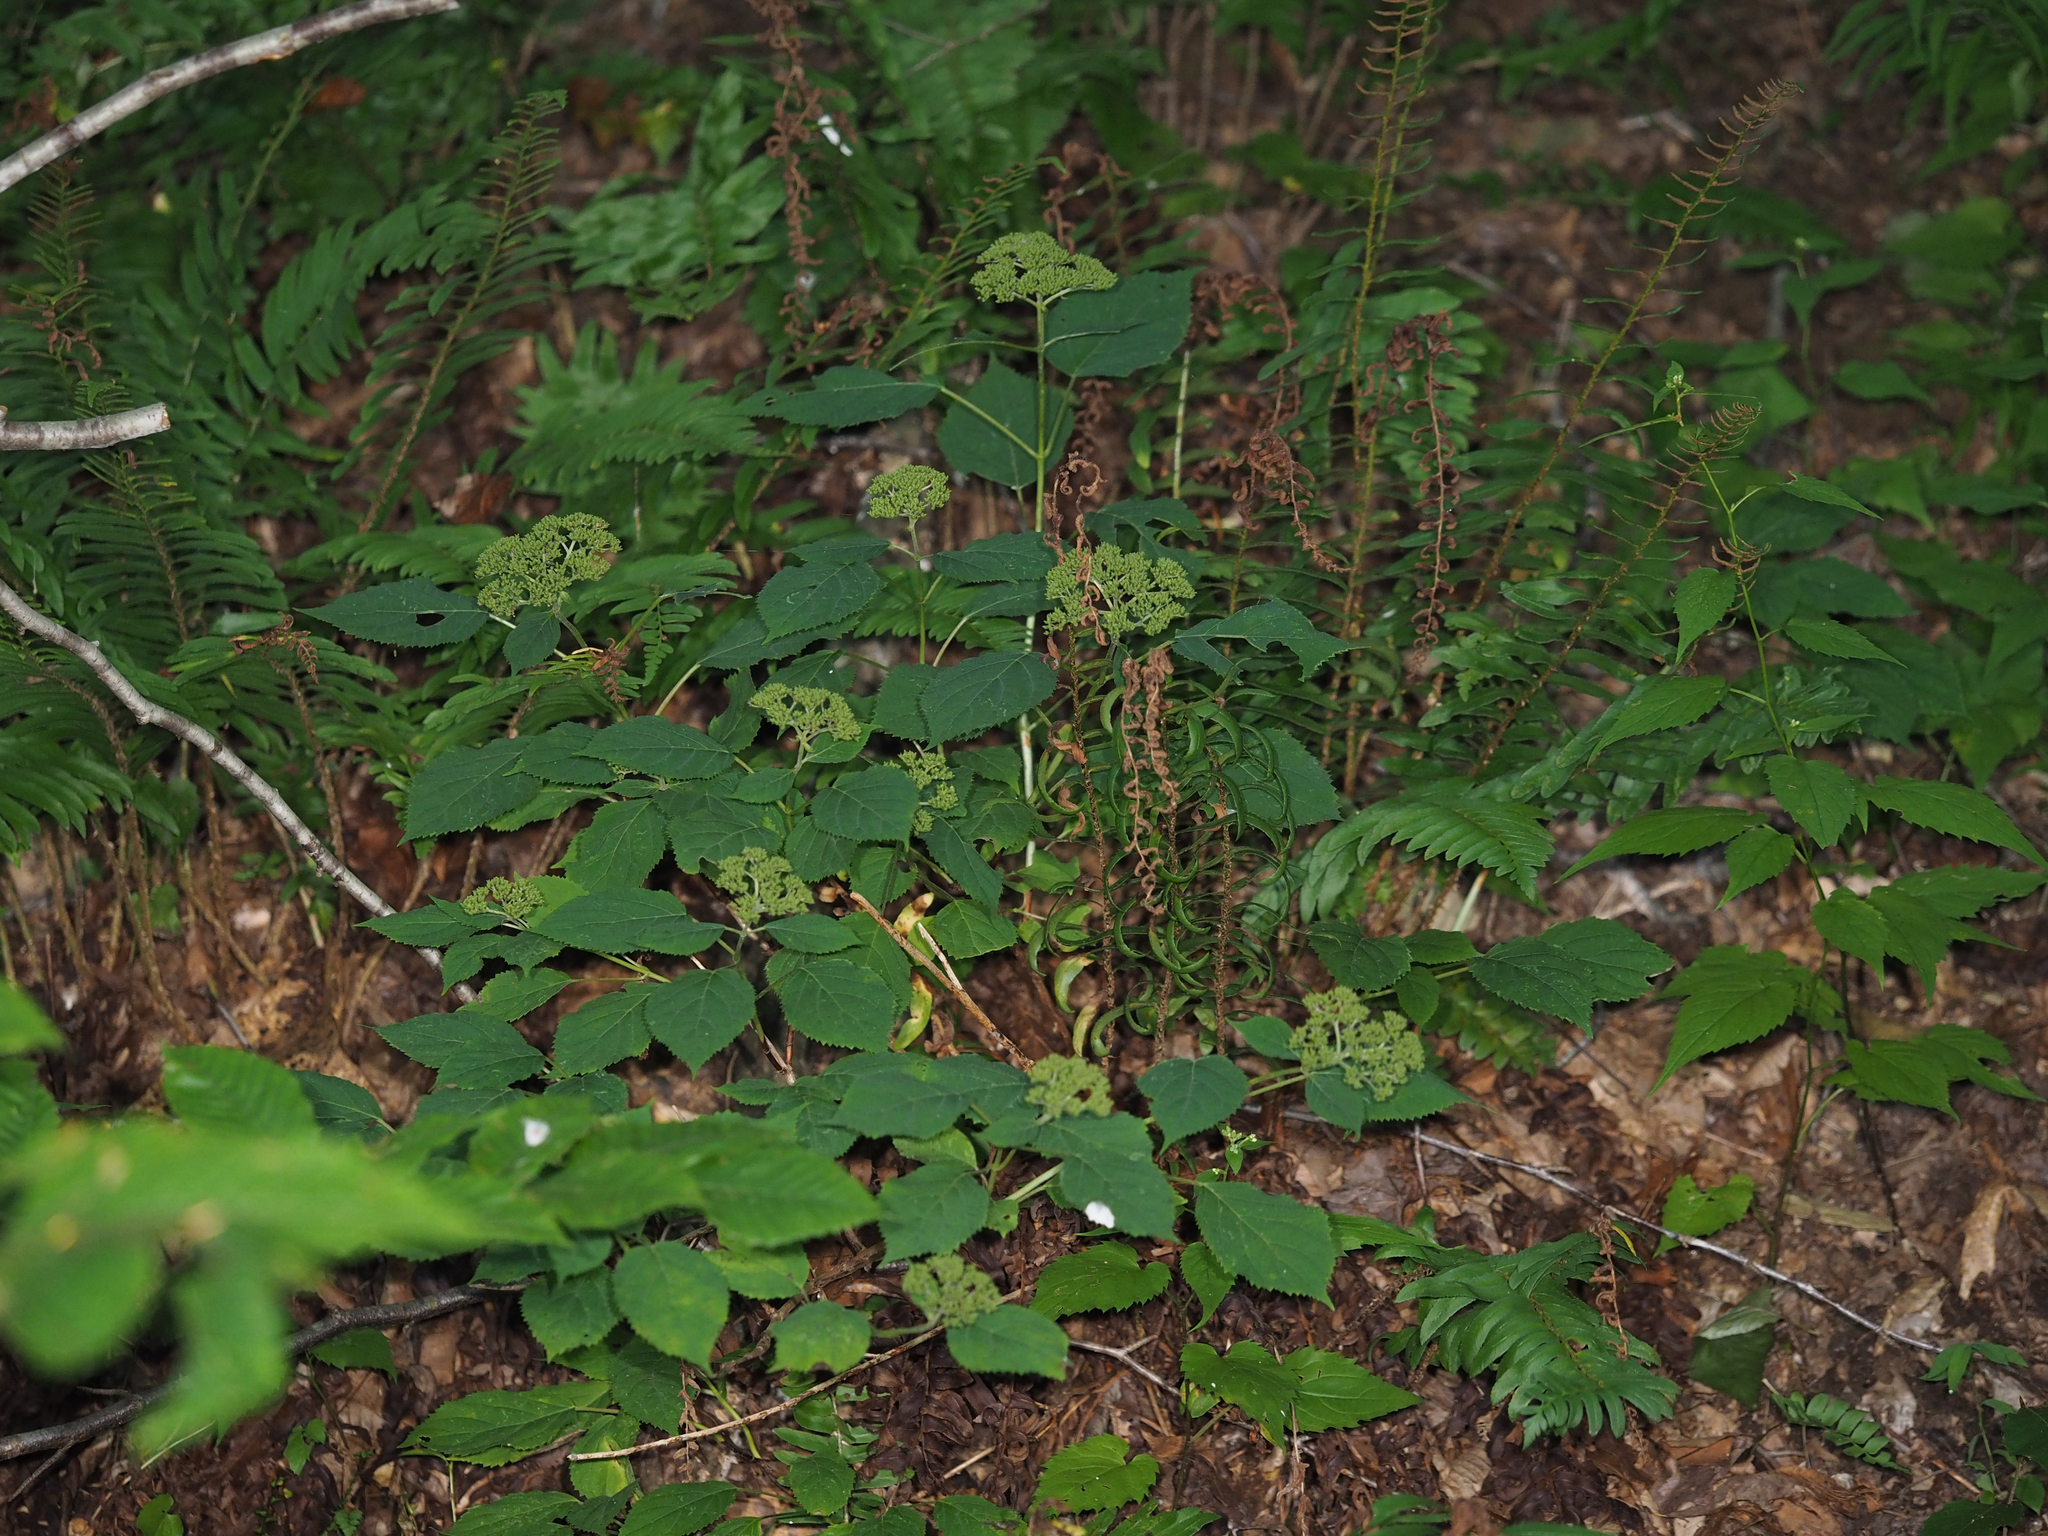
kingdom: Plantae
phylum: Tracheophyta
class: Magnoliopsida
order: Cornales
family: Hydrangeaceae
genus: Hydrangea
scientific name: Hydrangea arborescens
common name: Sevenbark
